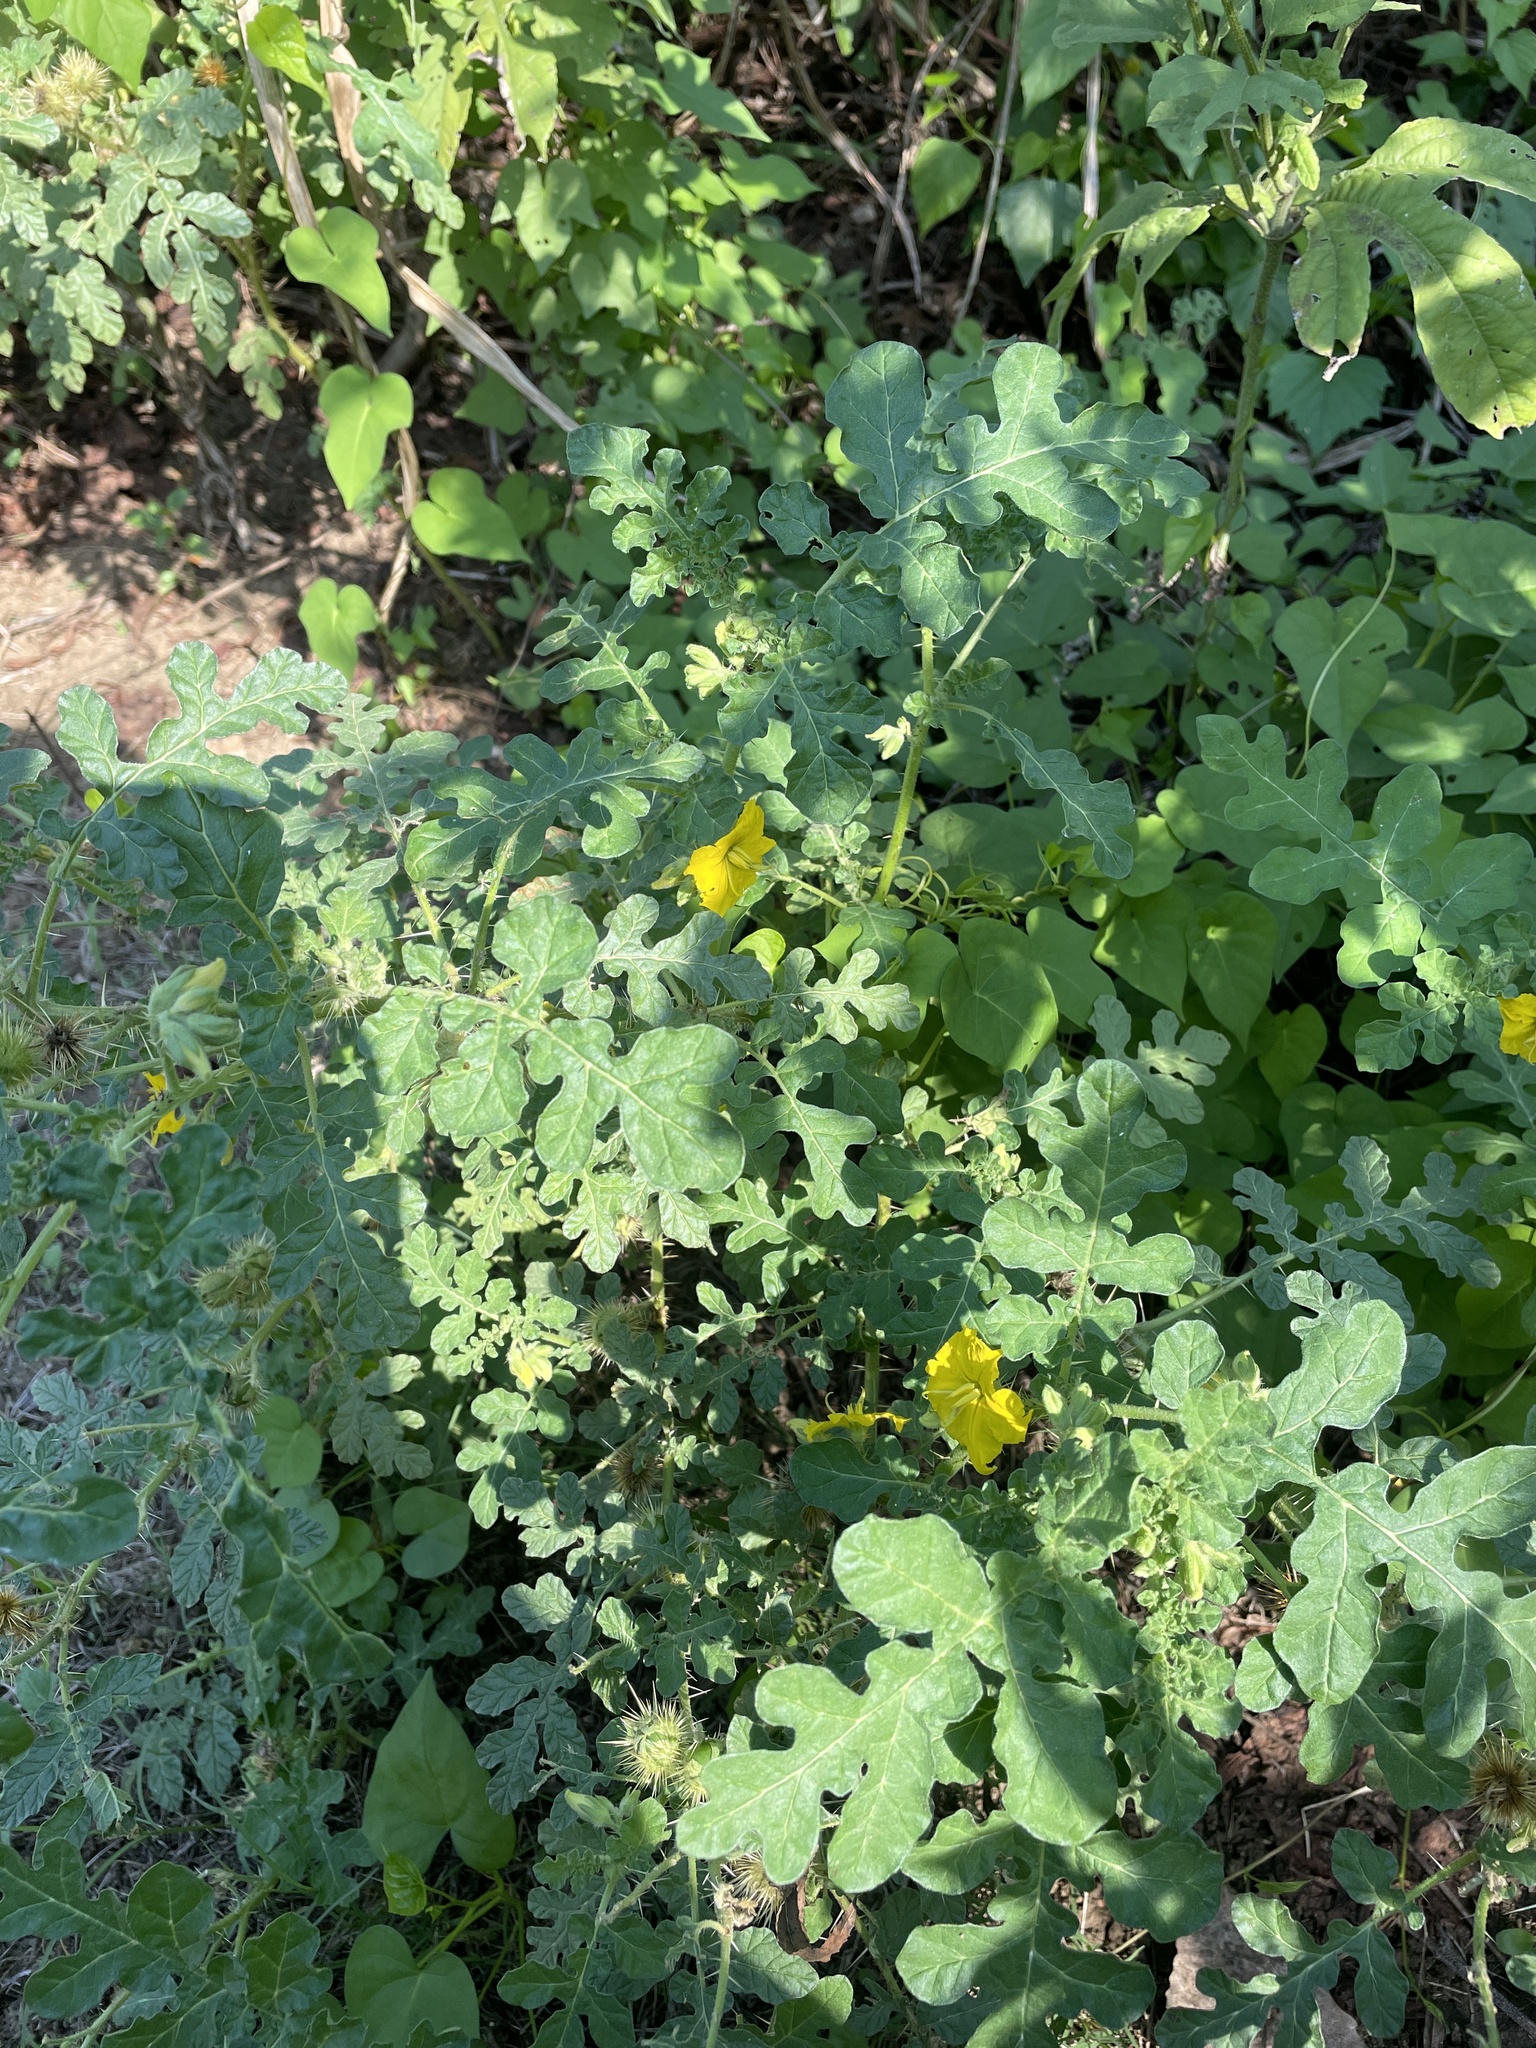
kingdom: Plantae
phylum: Tracheophyta
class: Magnoliopsida
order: Solanales
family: Solanaceae
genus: Solanum
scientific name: Solanum angustifolium
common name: Buffalobur nightshade
